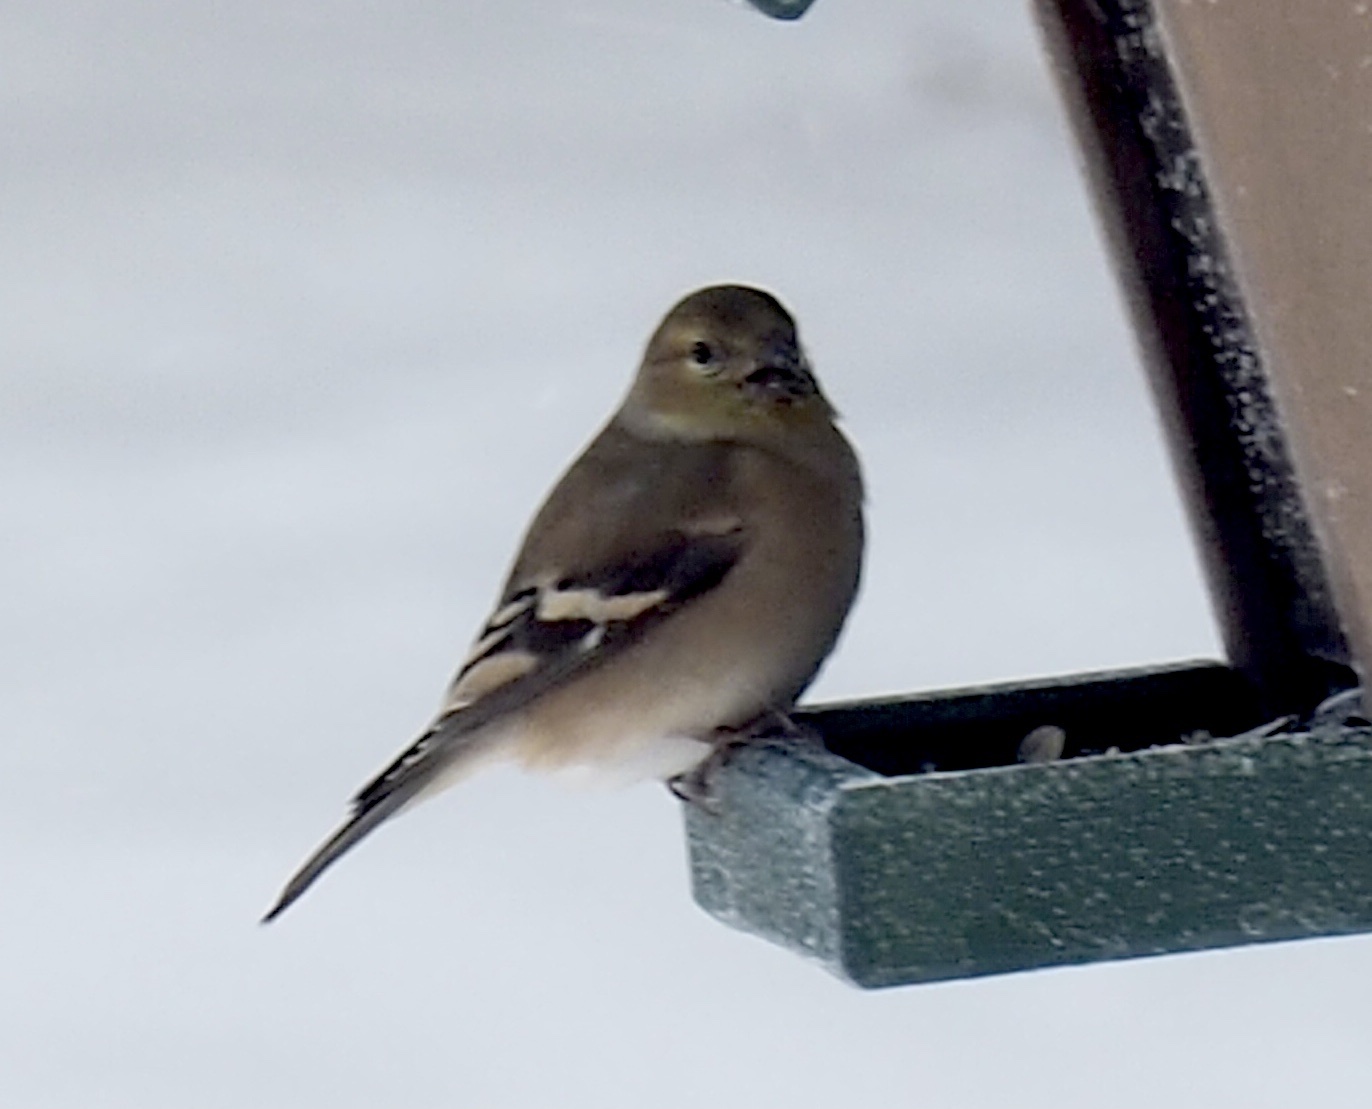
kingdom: Animalia
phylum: Chordata
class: Aves
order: Passeriformes
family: Fringillidae
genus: Spinus
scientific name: Spinus tristis
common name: American goldfinch
